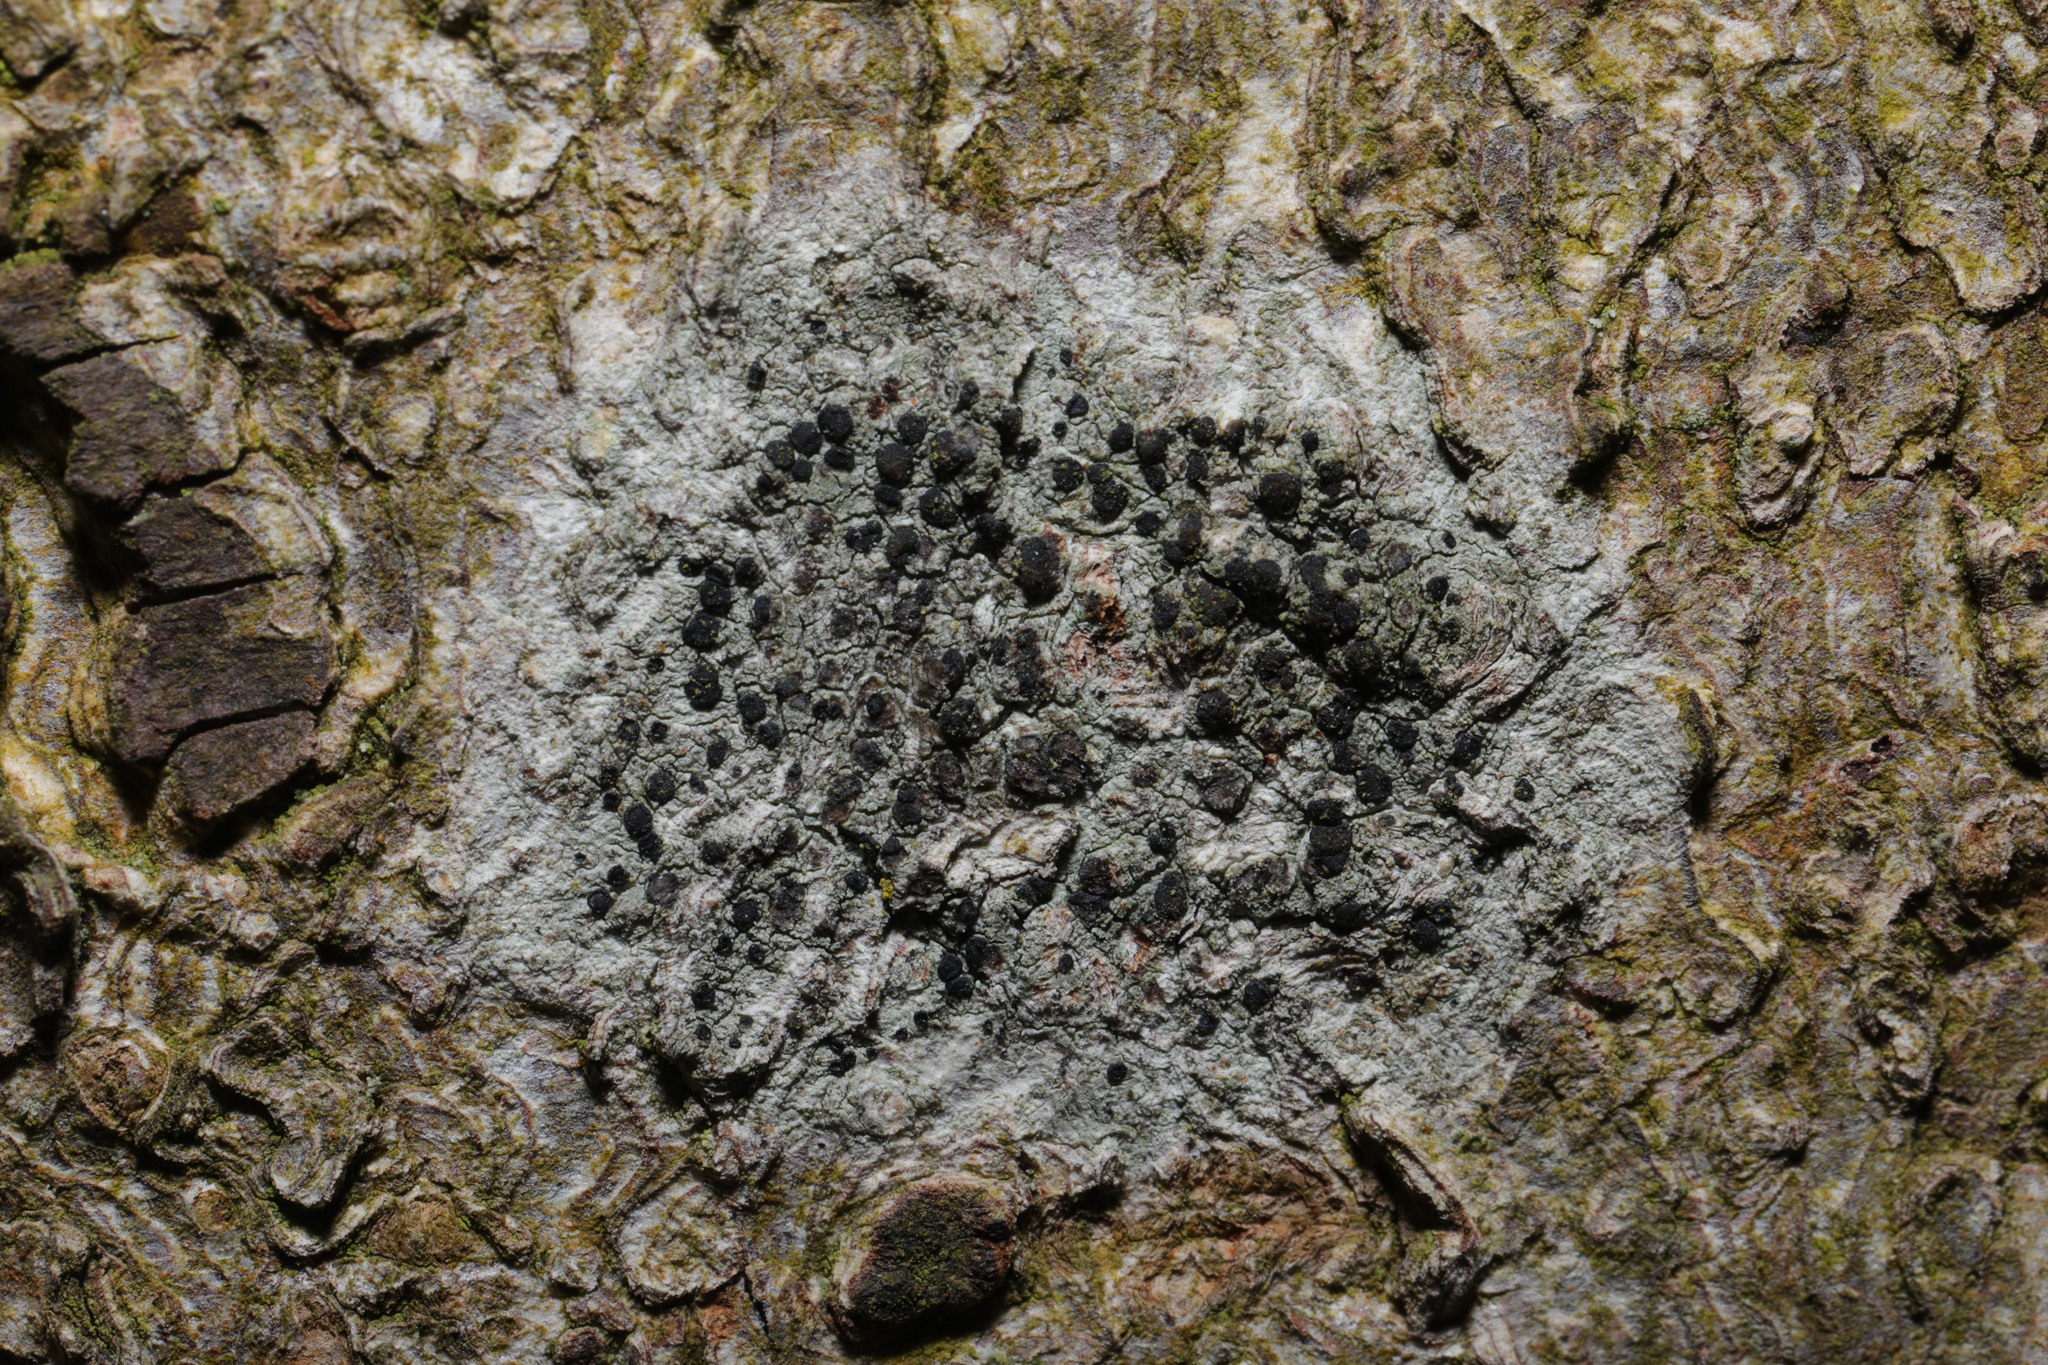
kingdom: Fungi
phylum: Ascomycota
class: Lecanoromycetes
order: Lecanorales
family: Lecanoraceae
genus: Lecidella
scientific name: Lecidella elaeochroma
